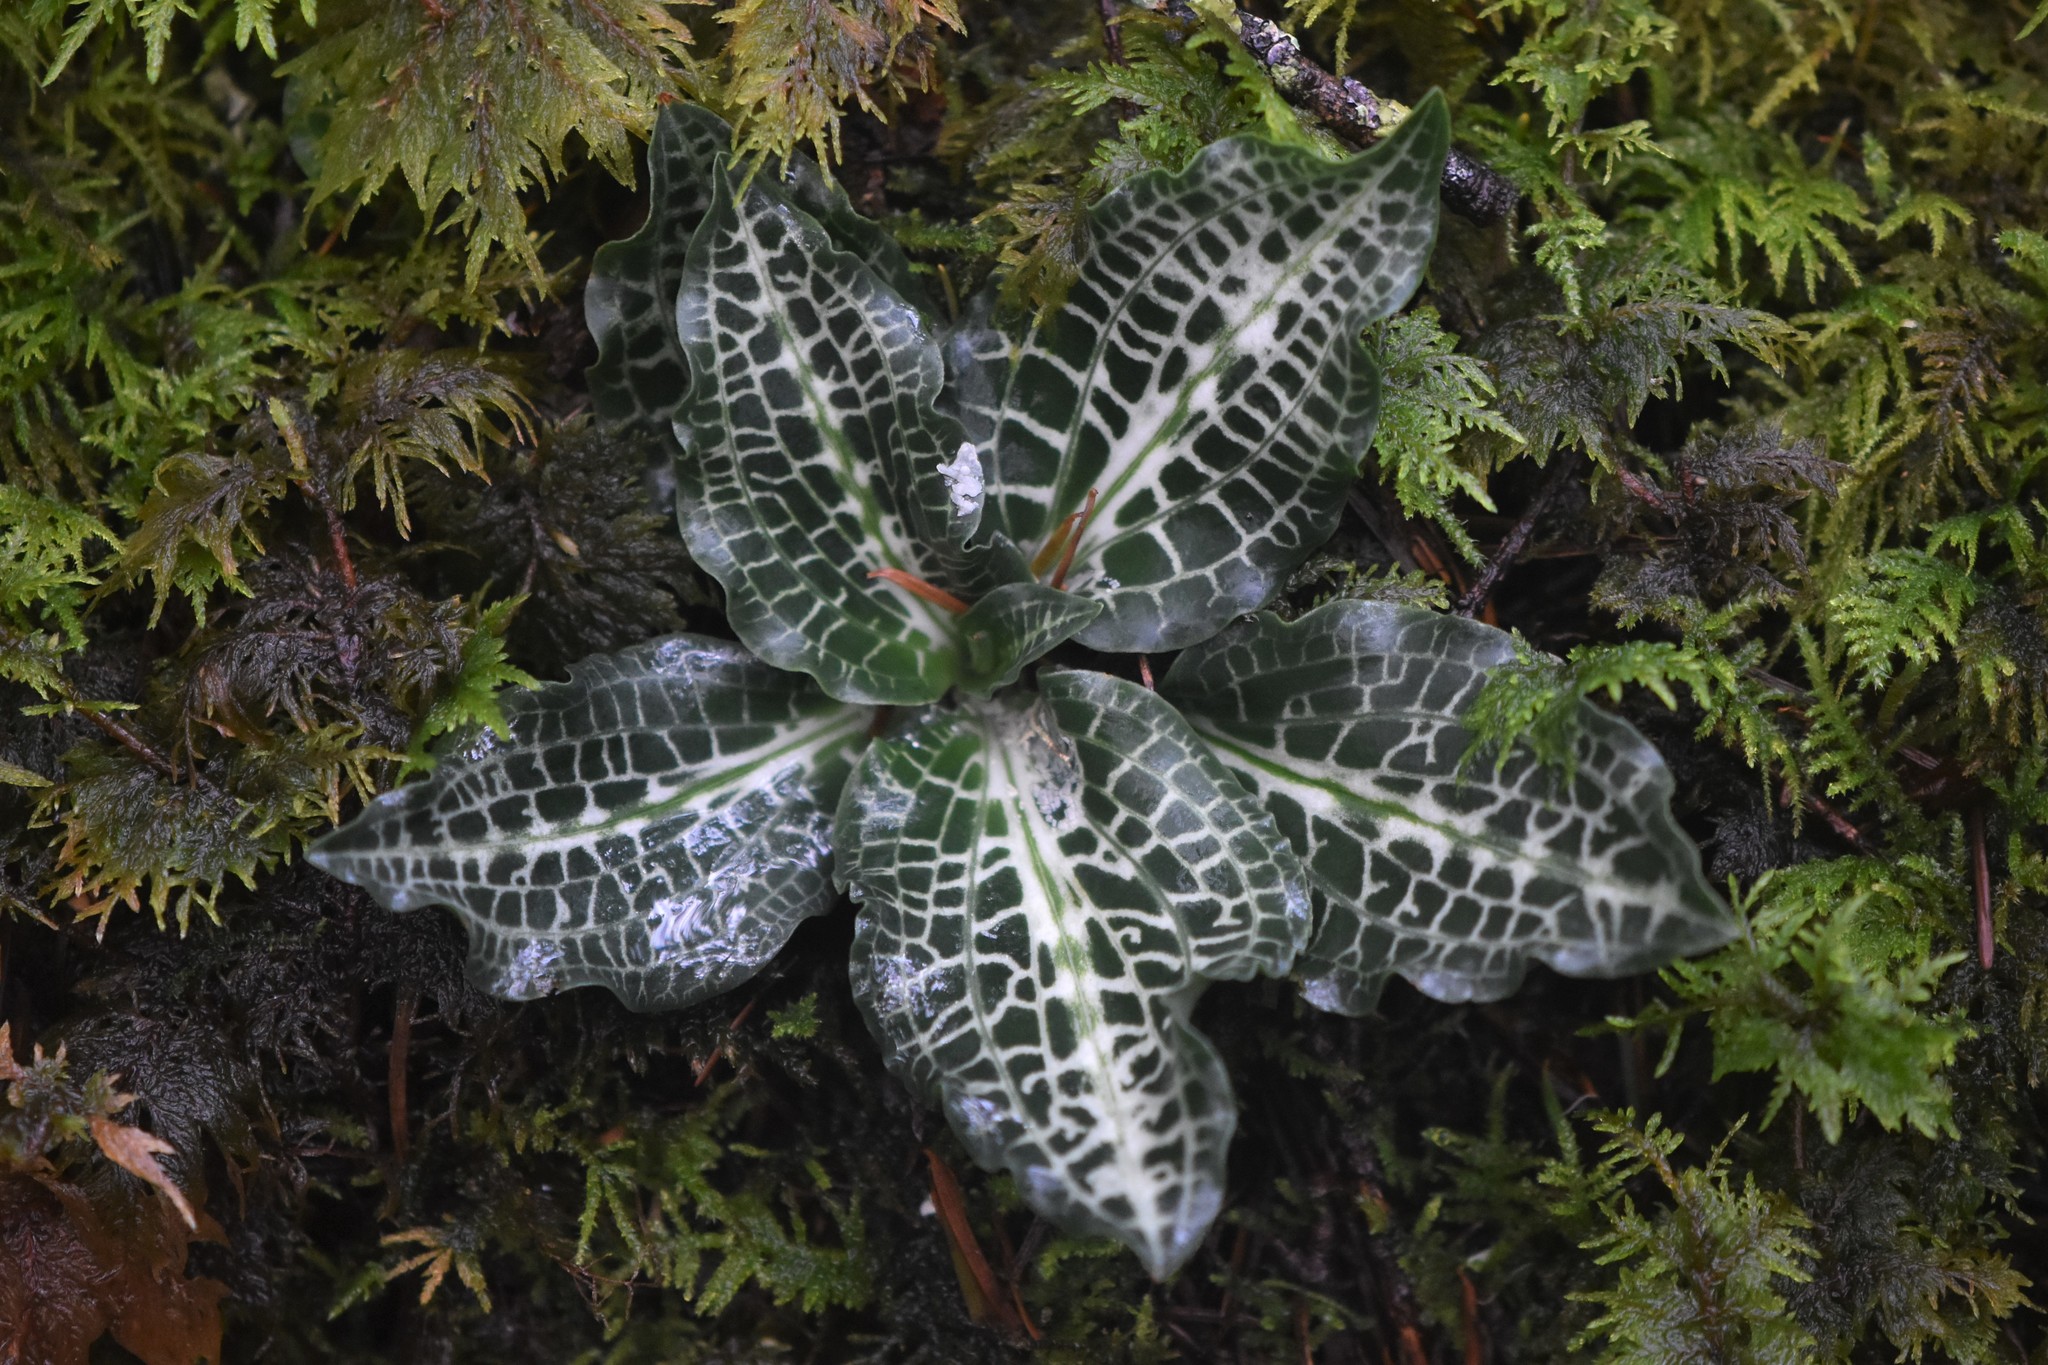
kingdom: Plantae
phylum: Tracheophyta
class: Liliopsida
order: Asparagales
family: Orchidaceae
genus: Goodyera
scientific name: Goodyera oblongifolia
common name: Giant rattlesnake-plantain
